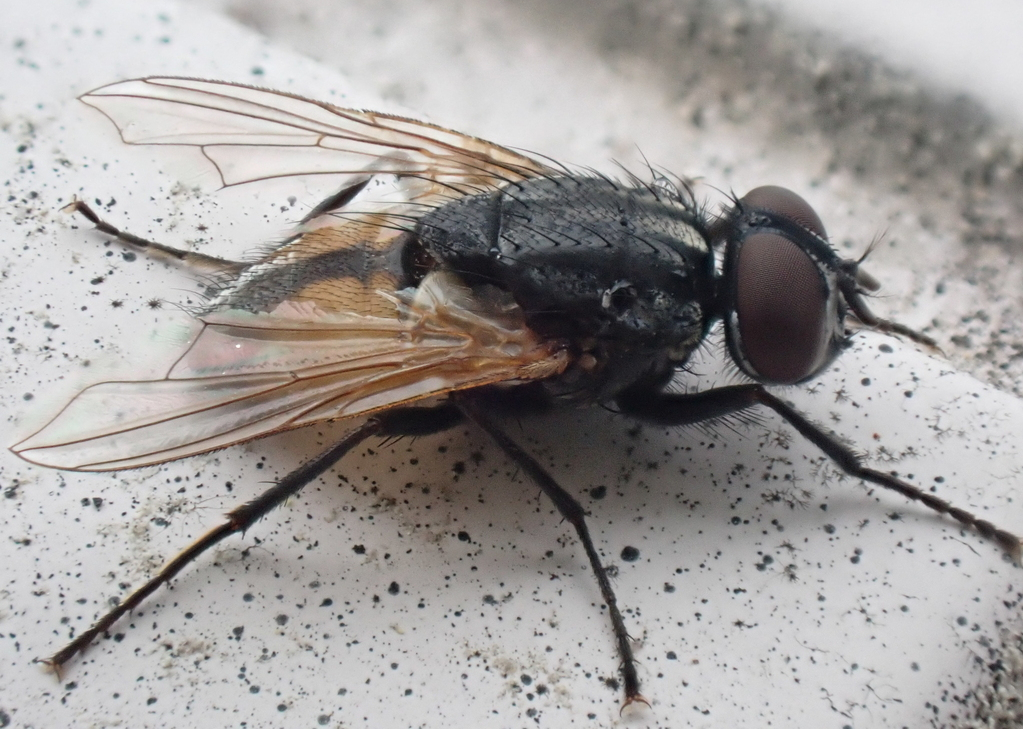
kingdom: Animalia
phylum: Arthropoda
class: Insecta
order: Diptera
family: Muscidae
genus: Musca
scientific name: Musca domestica
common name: House fly
